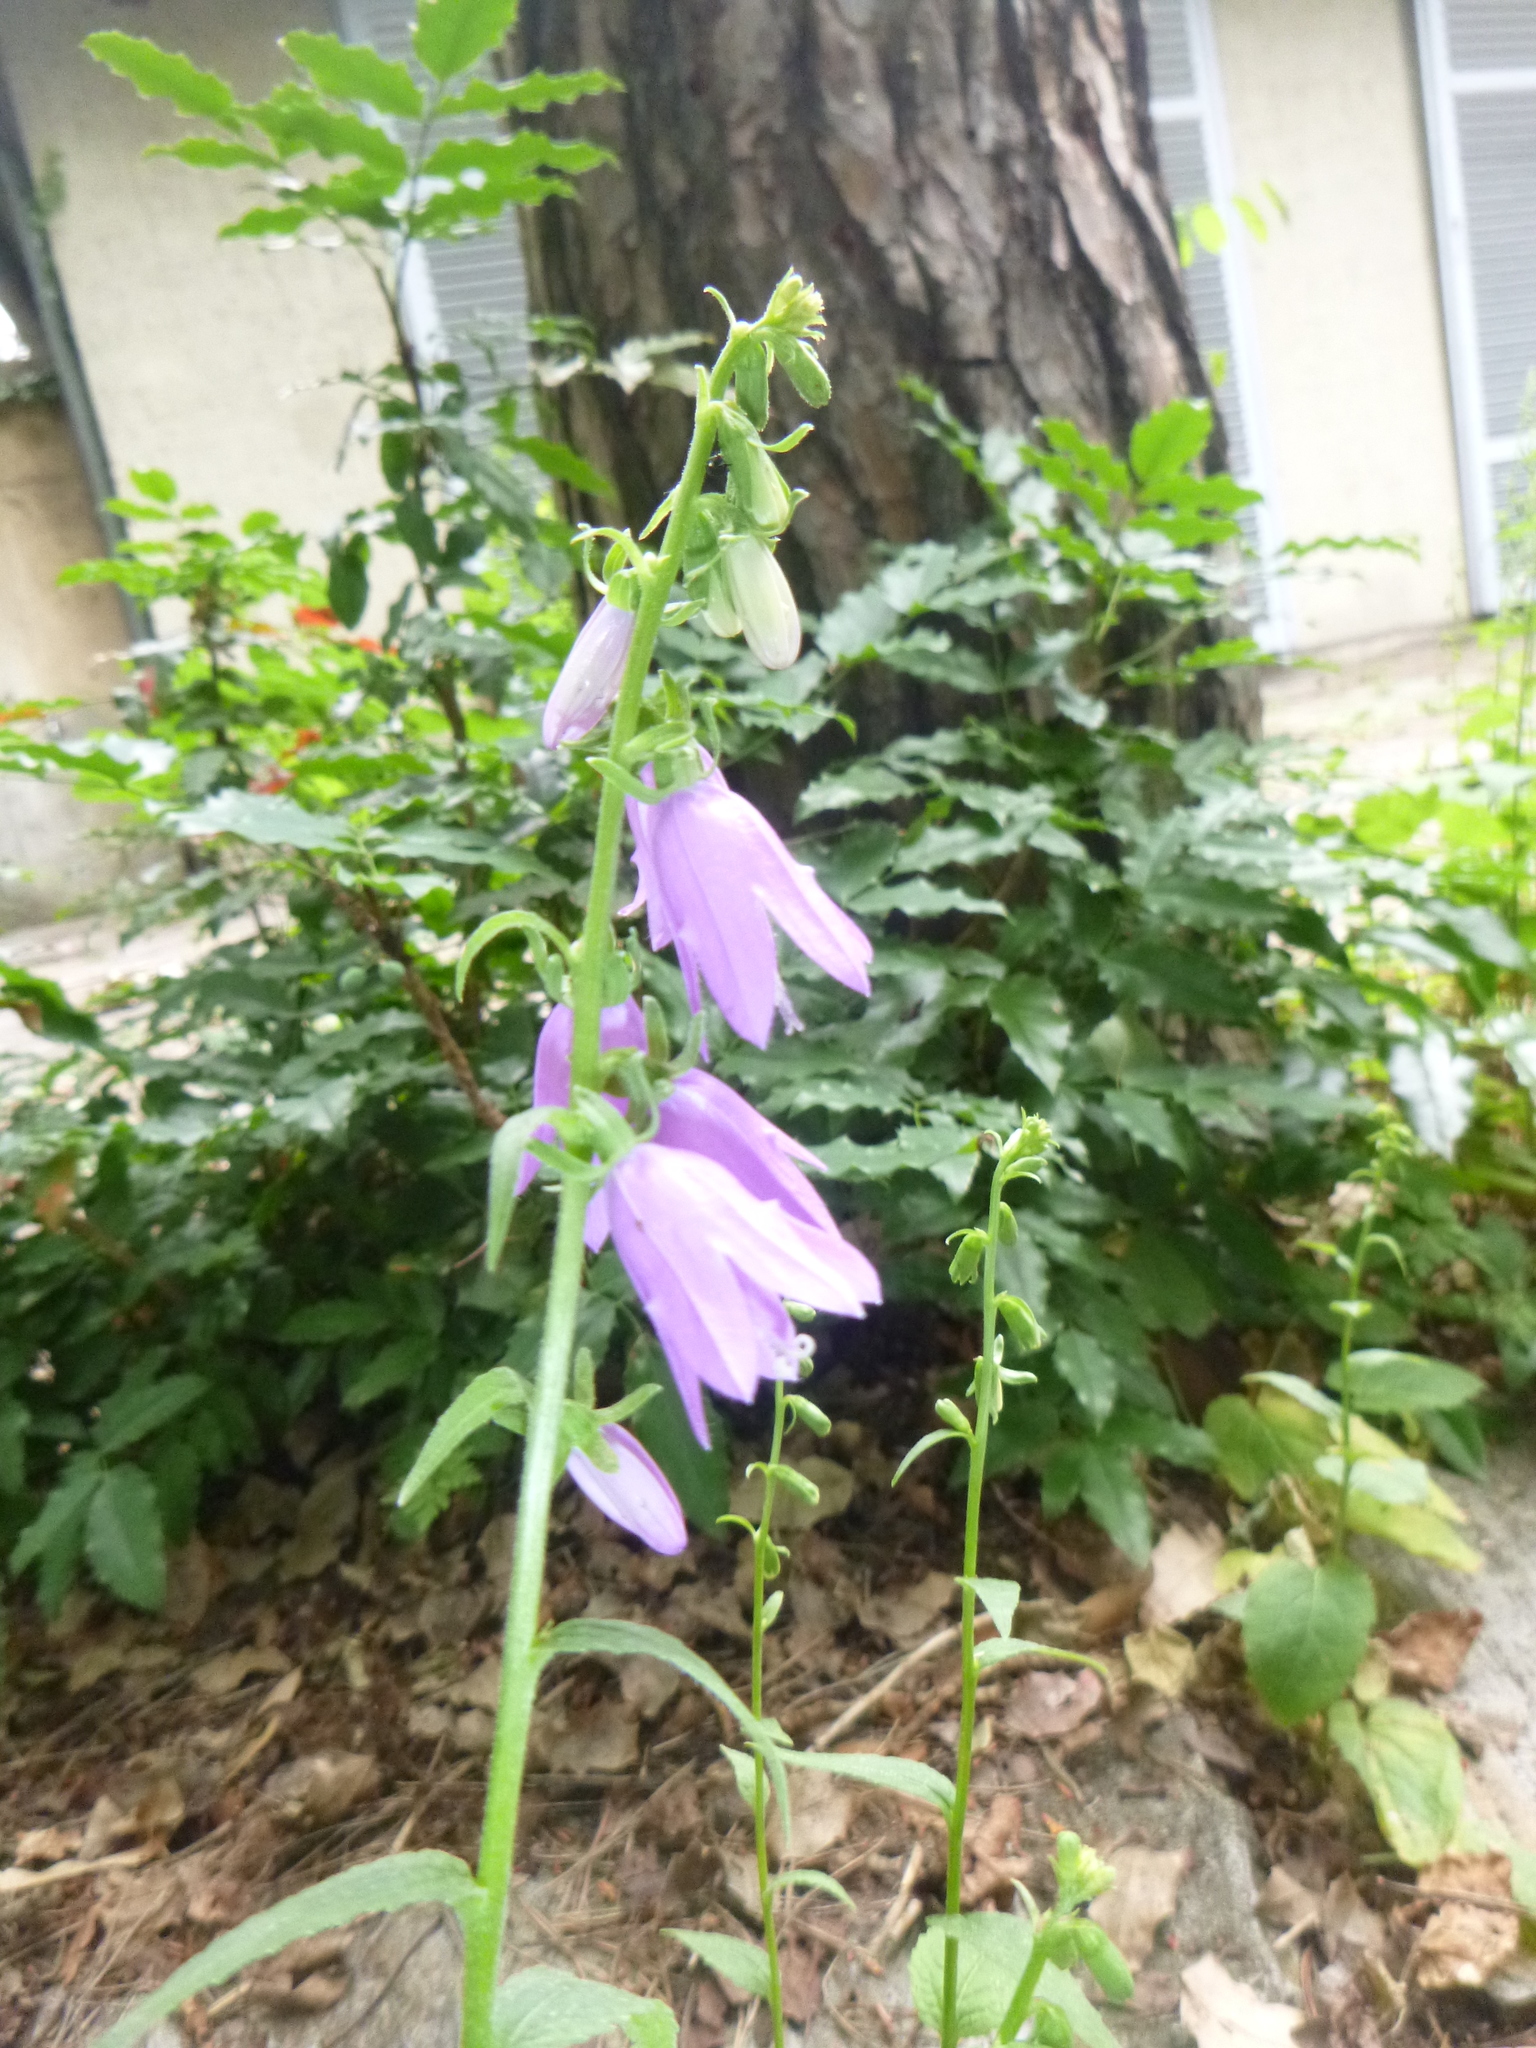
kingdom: Plantae
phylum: Tracheophyta
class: Magnoliopsida
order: Asterales
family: Campanulaceae
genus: Campanula
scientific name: Campanula rapunculoides
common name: Creeping bellflower
